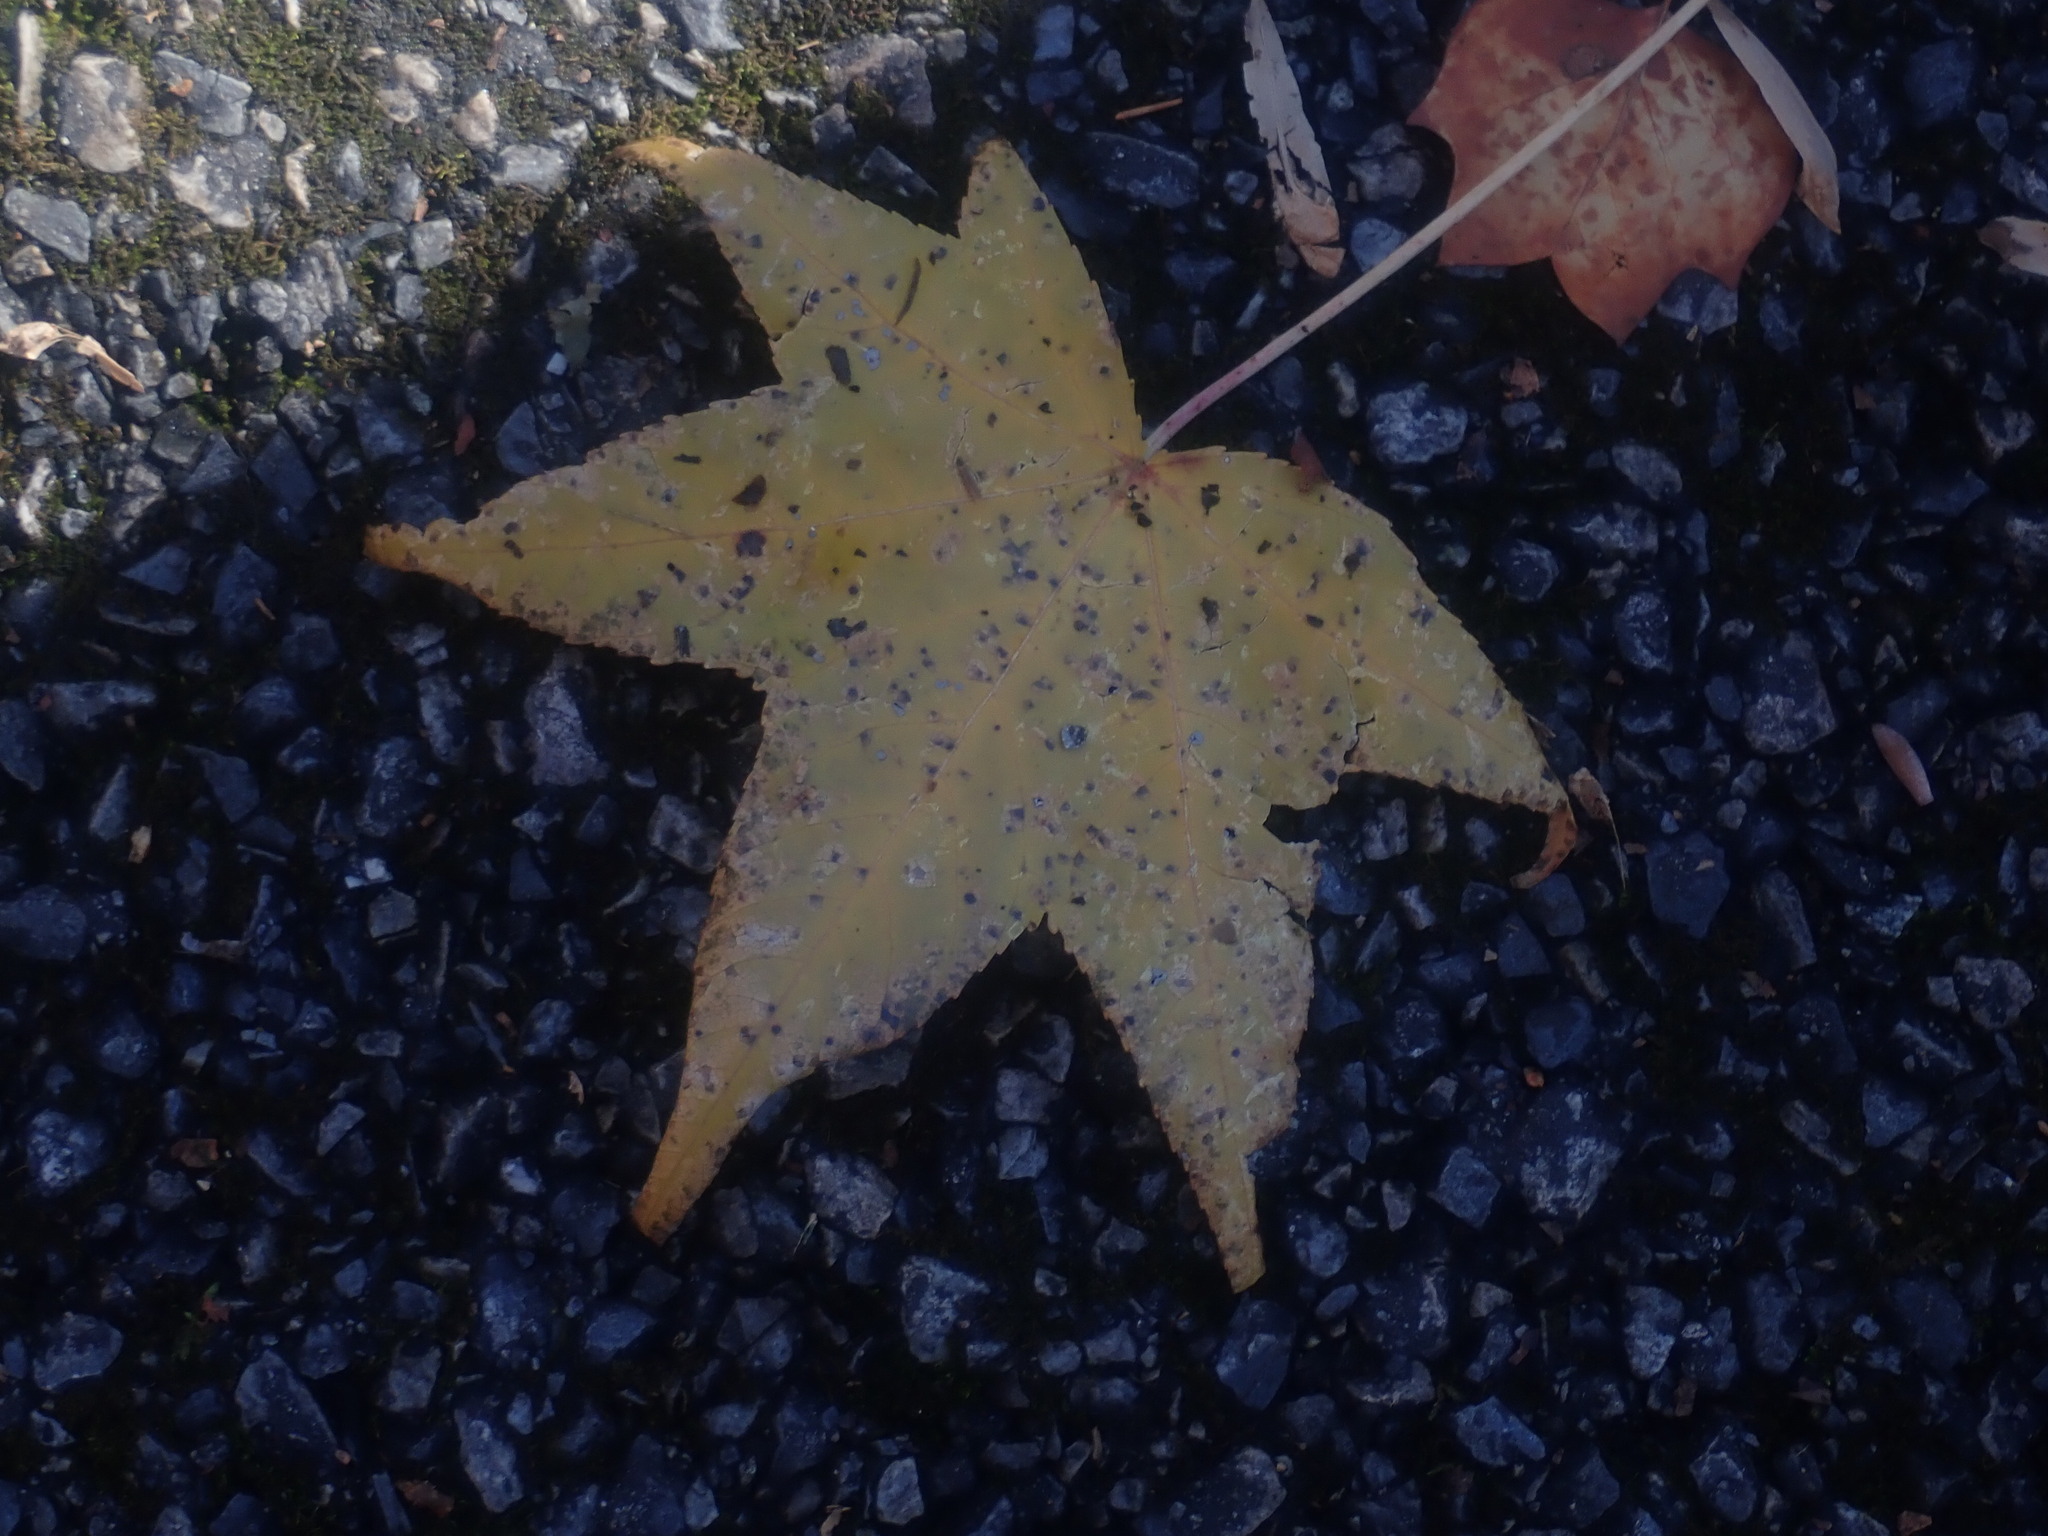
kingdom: Plantae
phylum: Tracheophyta
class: Magnoliopsida
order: Saxifragales
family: Altingiaceae
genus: Liquidambar
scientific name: Liquidambar styraciflua
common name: Sweet gum
